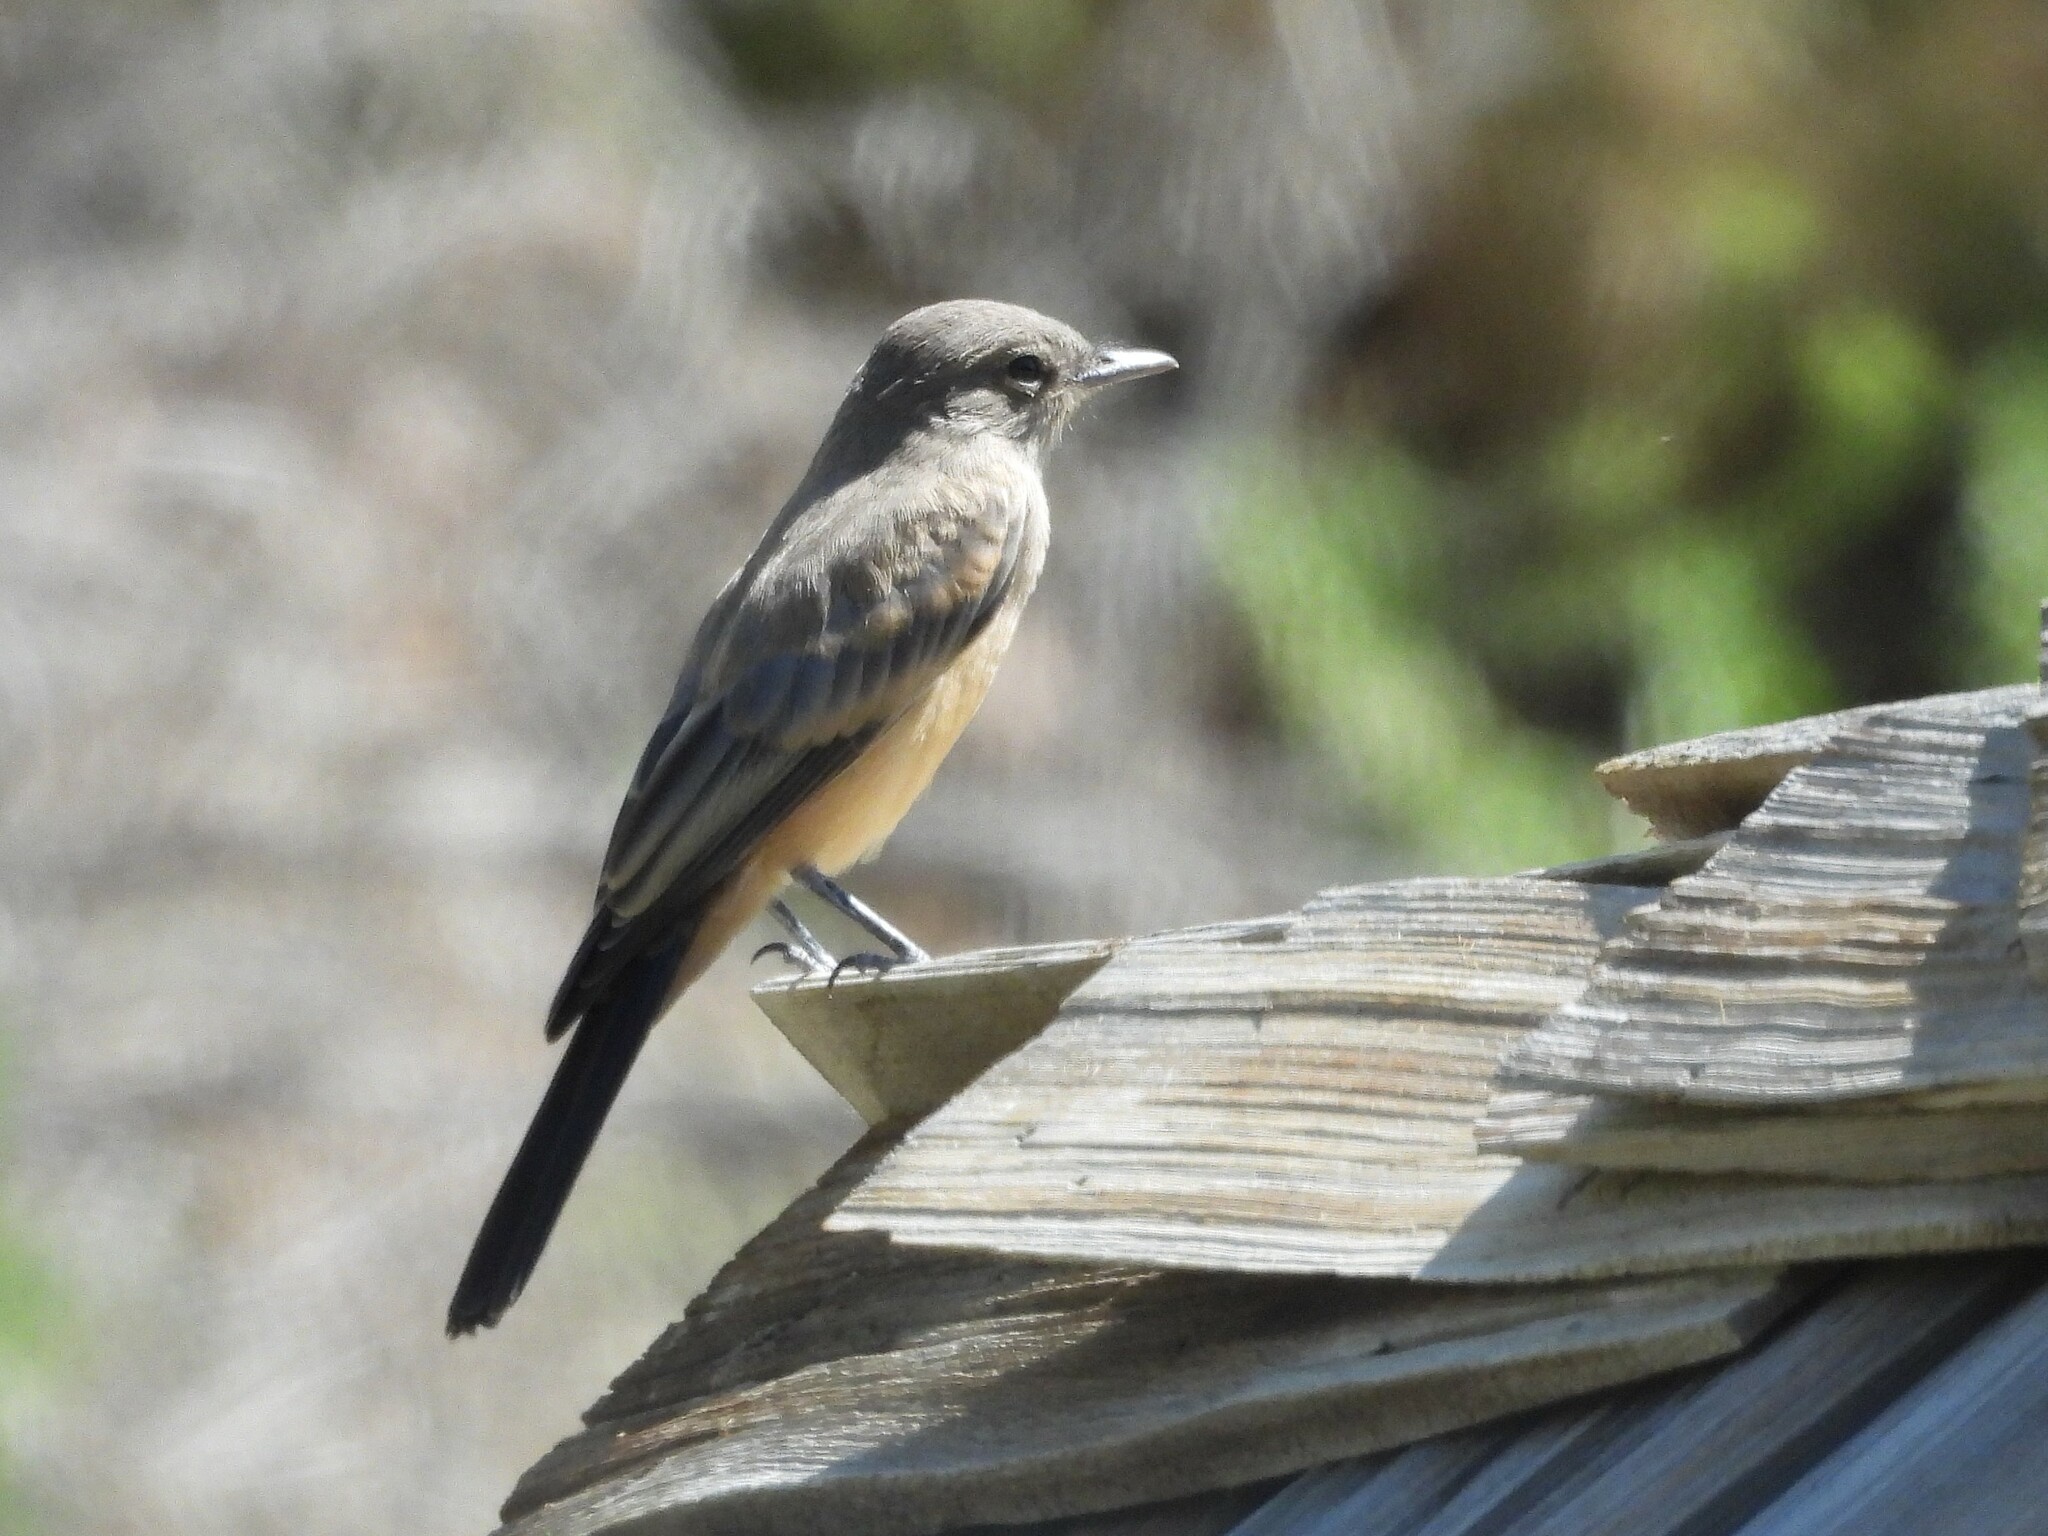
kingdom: Animalia
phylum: Chordata
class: Aves
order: Passeriformes
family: Tyrannidae
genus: Sayornis
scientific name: Sayornis saya
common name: Say's phoebe
